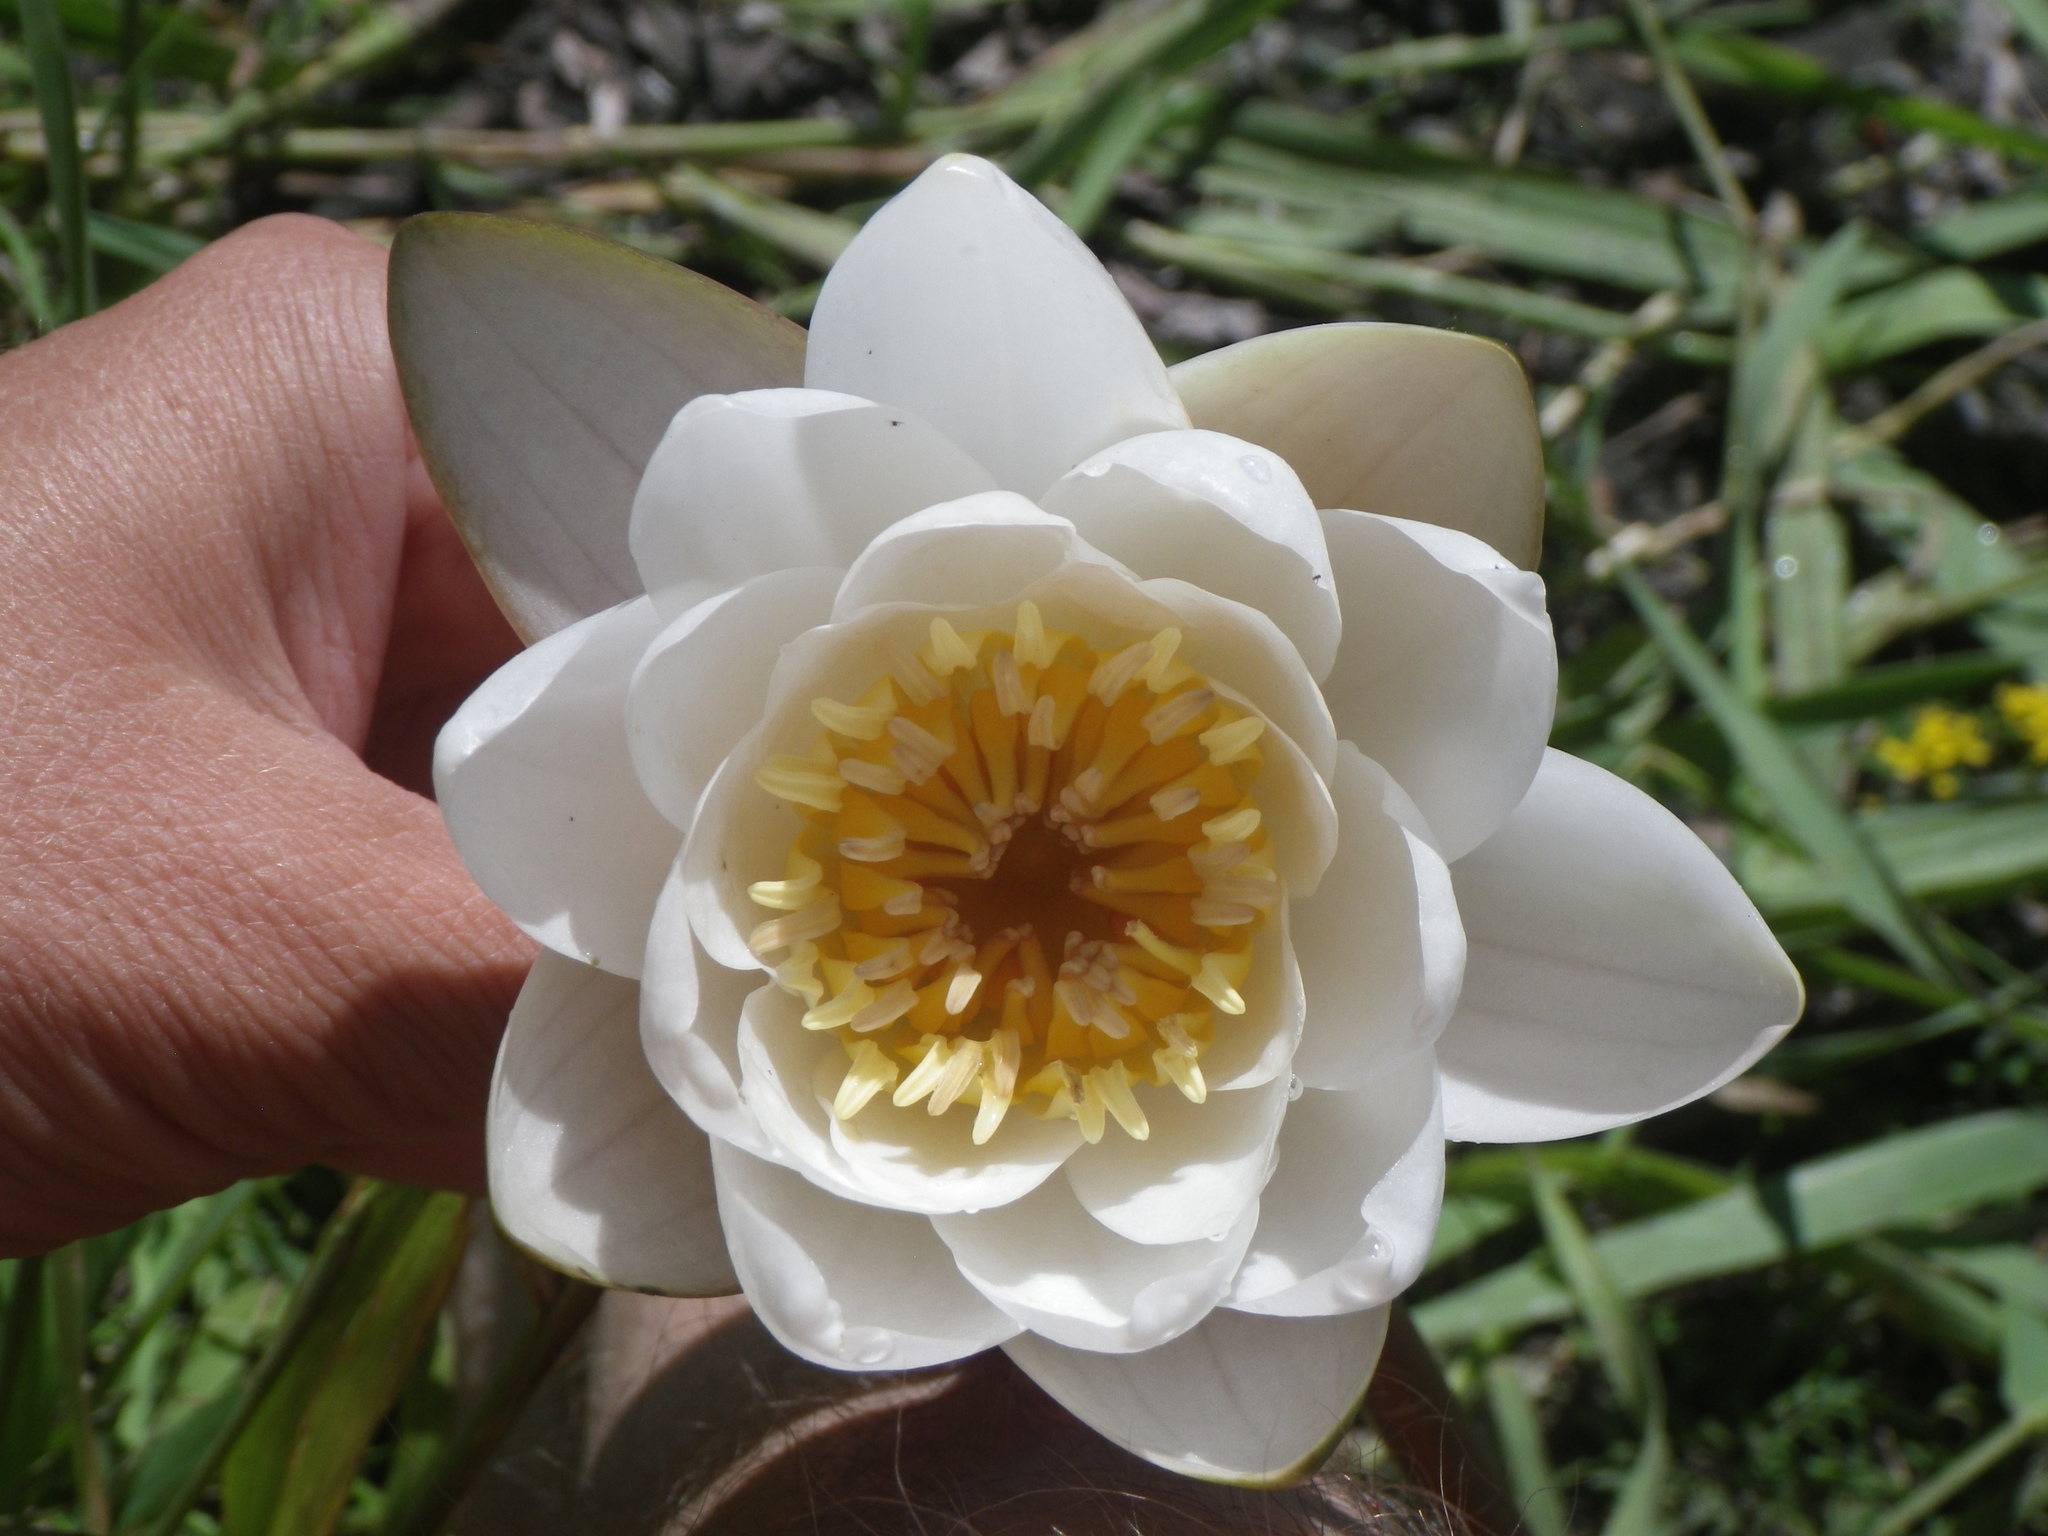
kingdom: Plantae
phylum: Tracheophyta
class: Magnoliopsida
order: Nymphaeales
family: Nymphaeaceae
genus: Nymphaea
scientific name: Nymphaea candida
